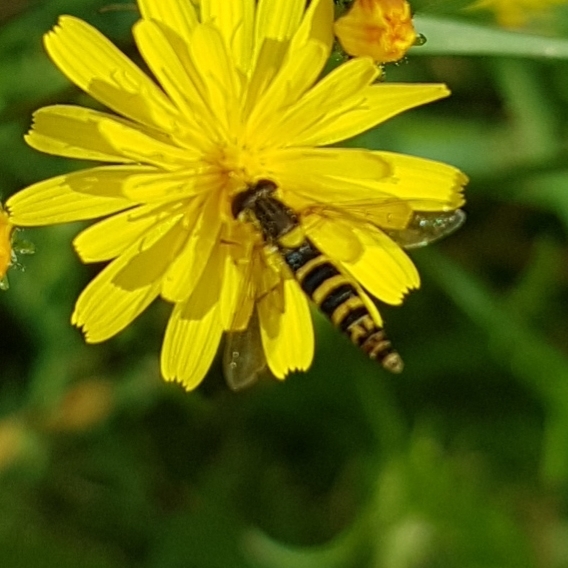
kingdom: Animalia
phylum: Arthropoda
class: Insecta
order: Diptera
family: Syrphidae
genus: Sphaerophoria
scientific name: Sphaerophoria scripta
